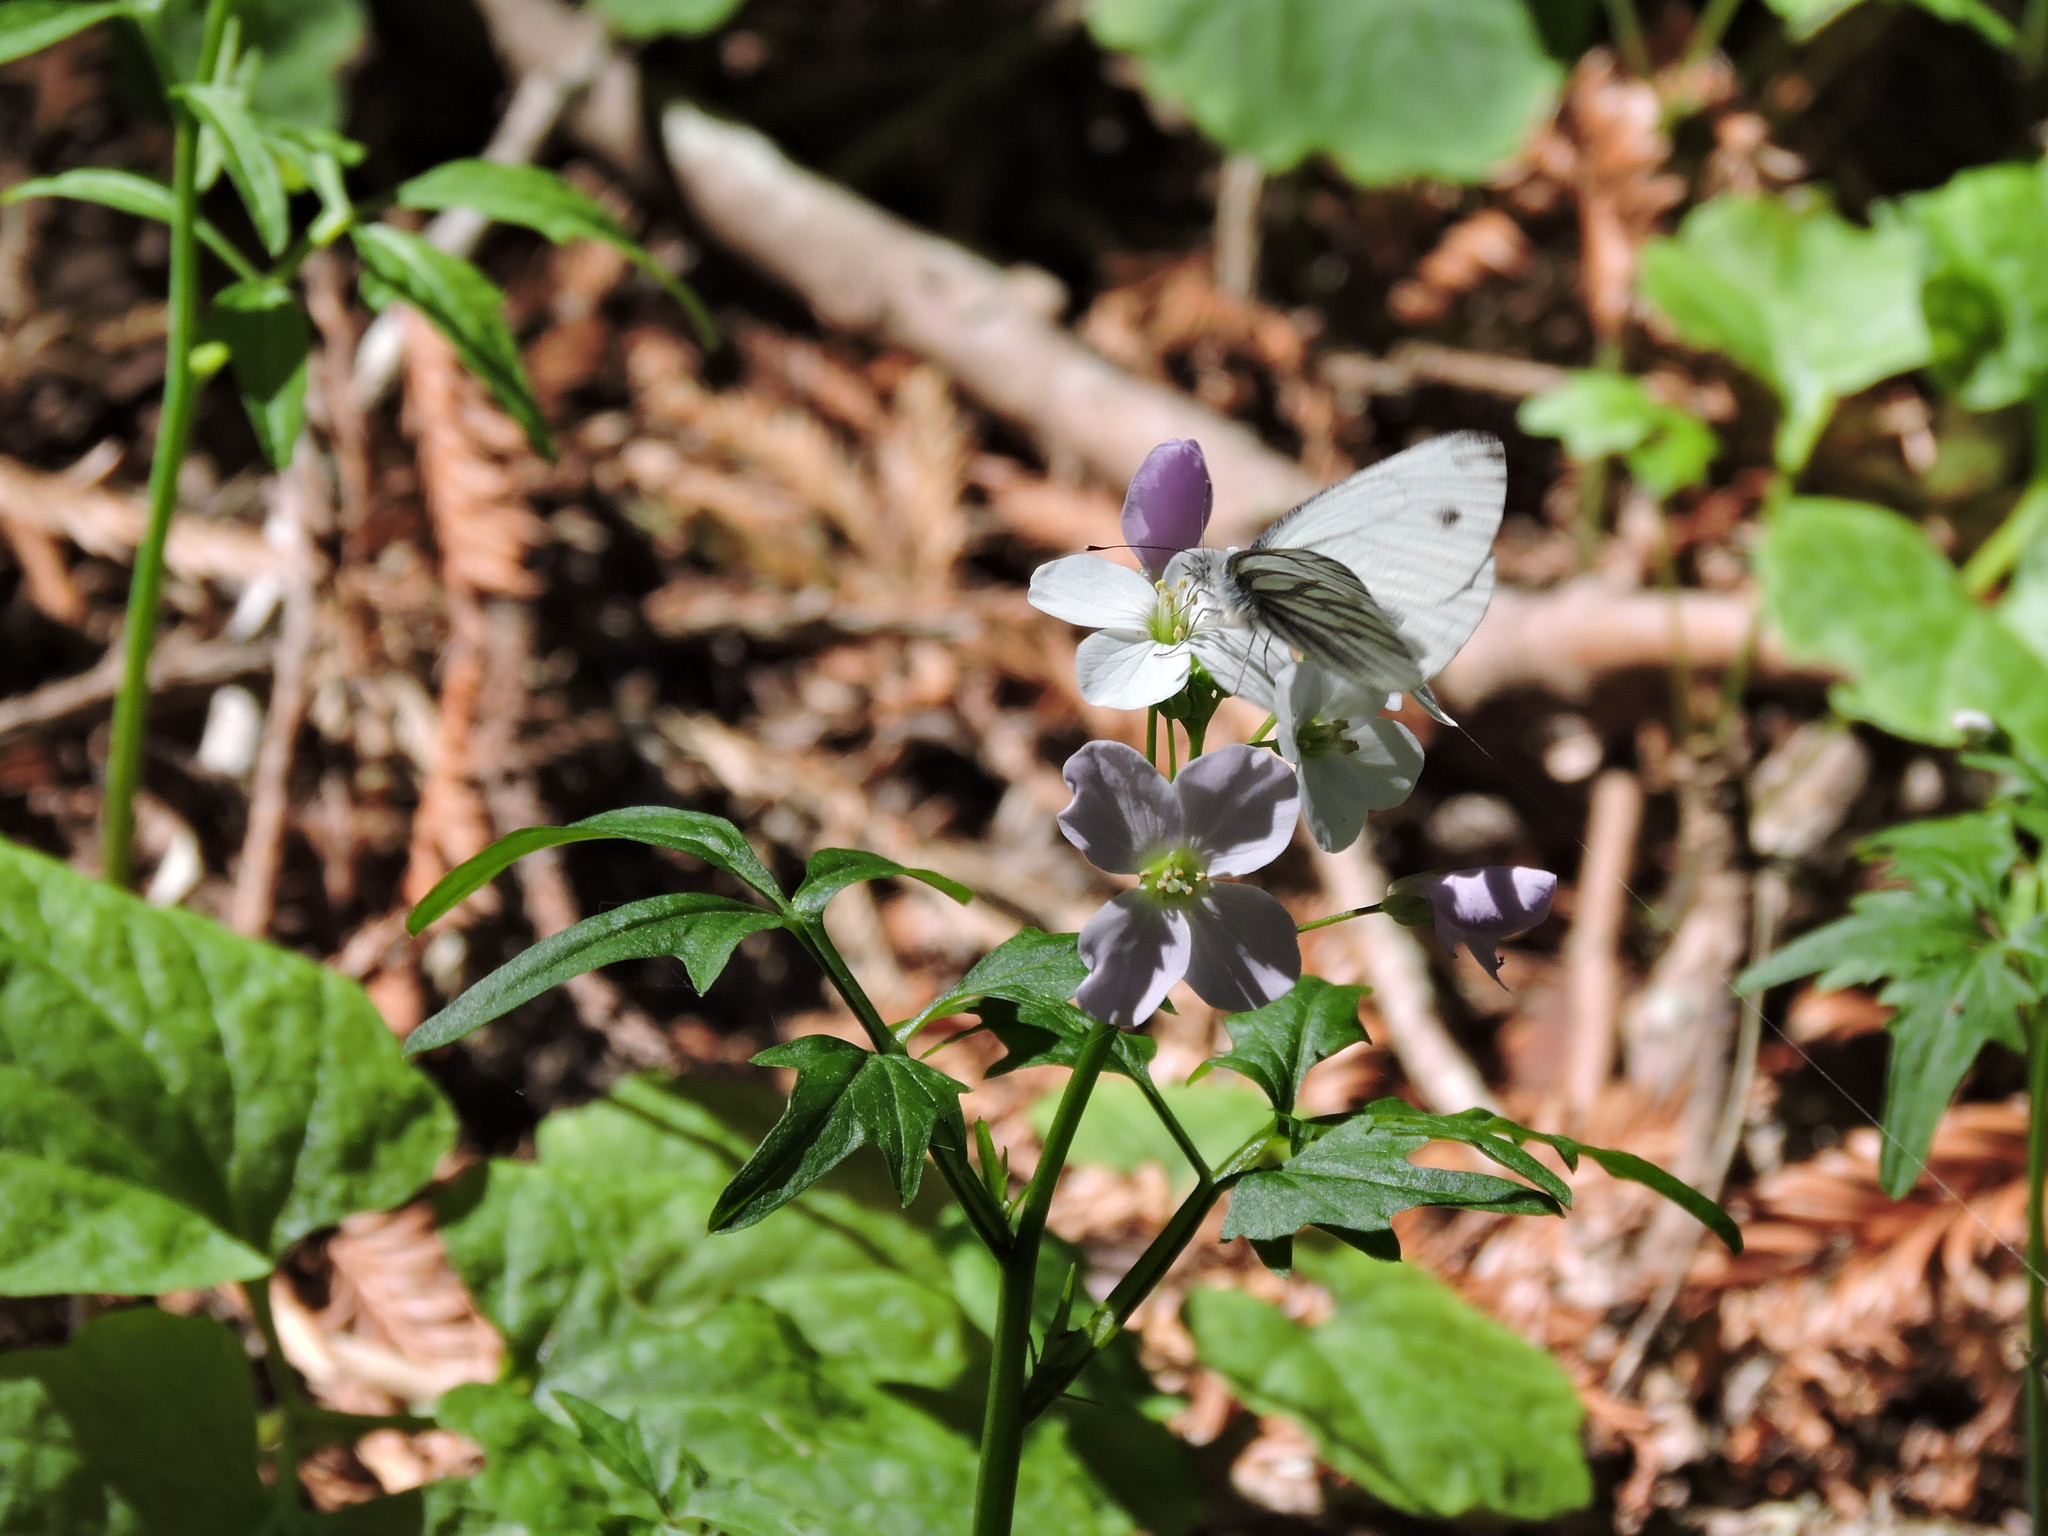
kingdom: Animalia
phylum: Arthropoda
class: Insecta
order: Lepidoptera
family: Pieridae
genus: Pieris
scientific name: Pieris marginalis
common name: Margined white
